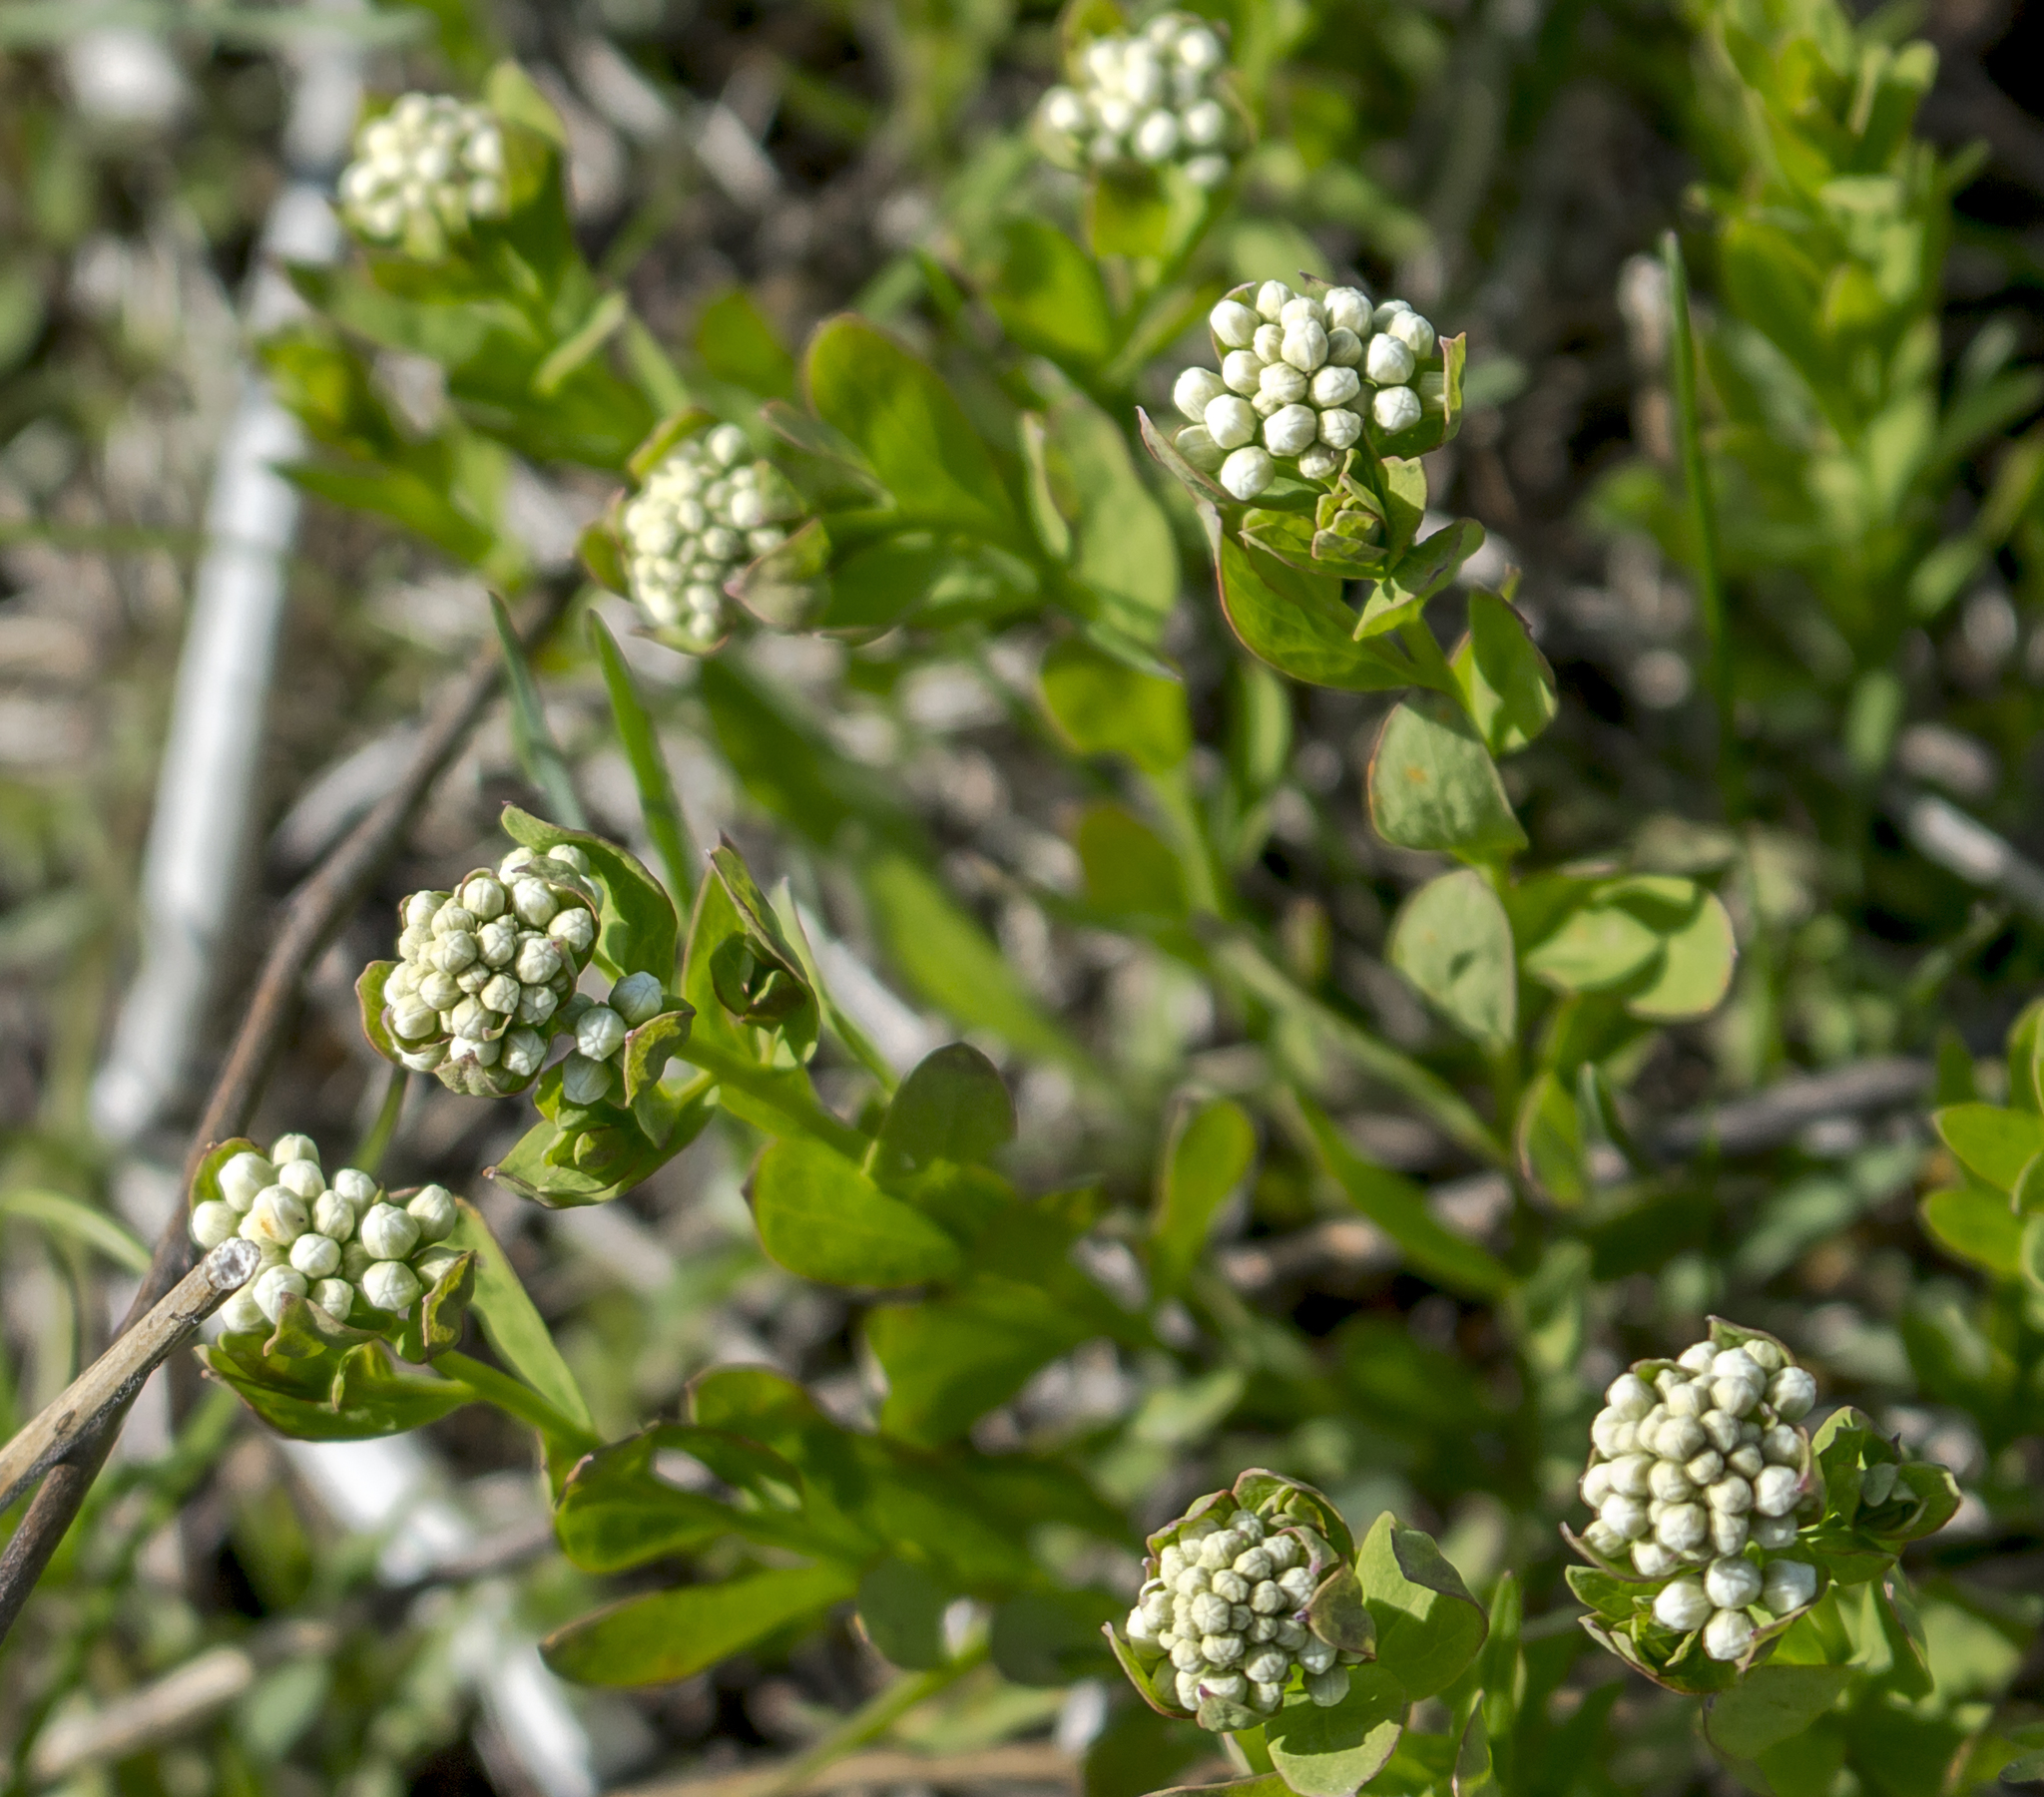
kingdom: Plantae
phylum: Tracheophyta
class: Magnoliopsida
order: Santalales
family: Comandraceae
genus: Comandra
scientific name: Comandra umbellata
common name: Bastard toadflax
